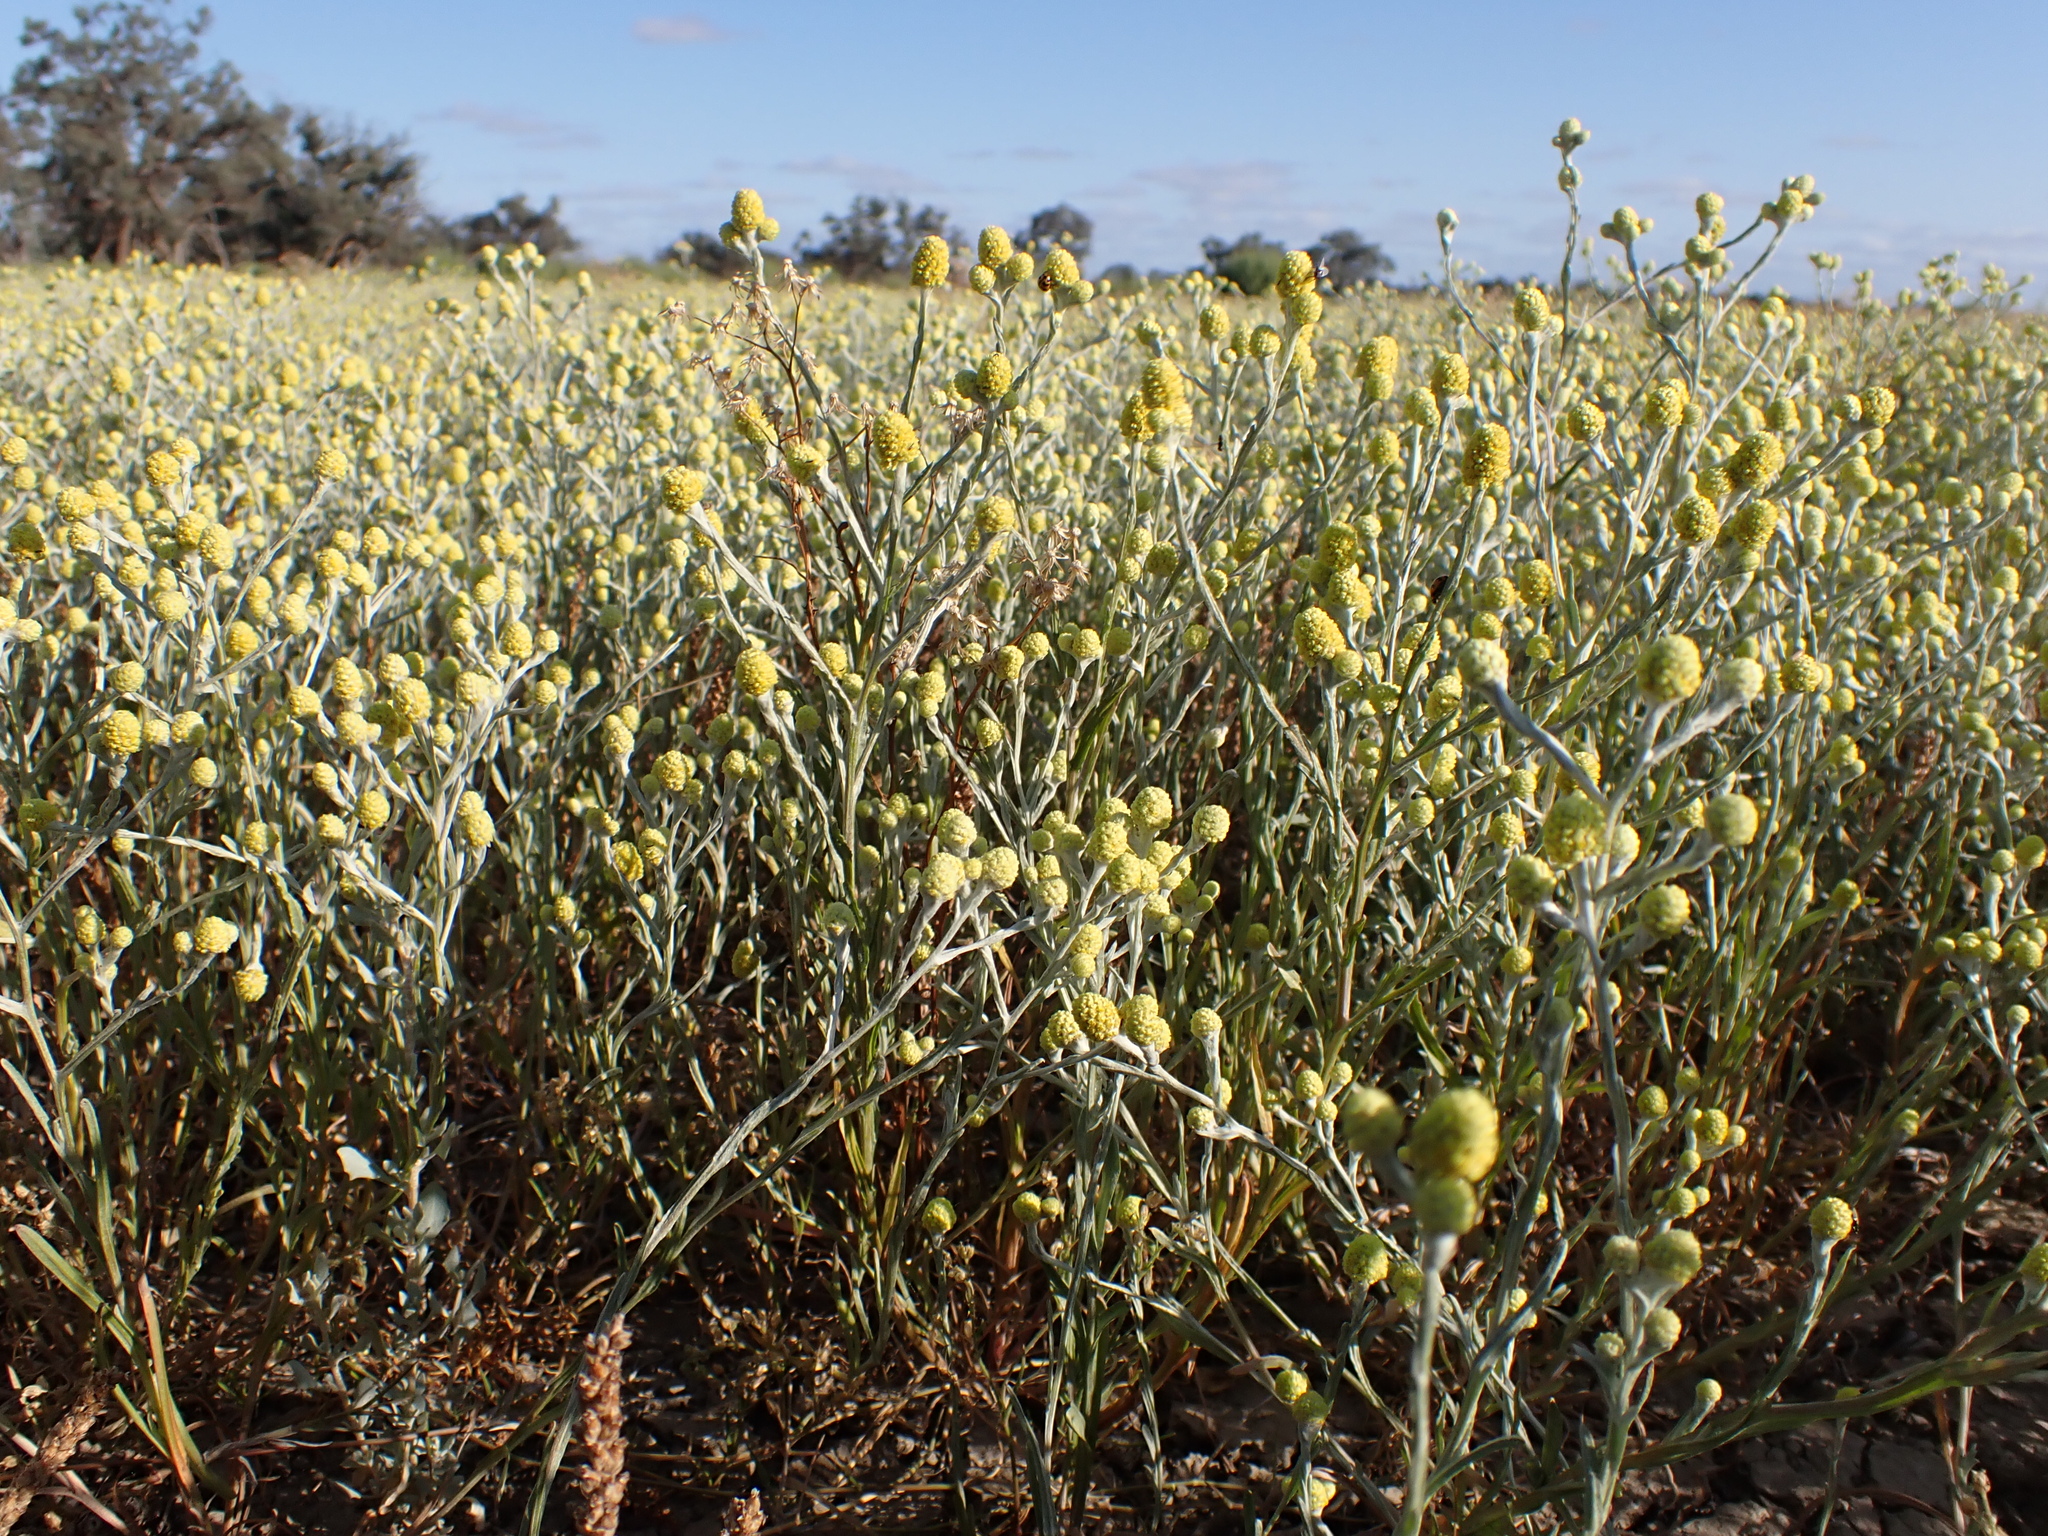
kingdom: Plantae
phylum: Tracheophyta
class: Magnoliopsida
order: Asterales
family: Asteraceae
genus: Calocephalus
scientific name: Calocephalus sonderi
